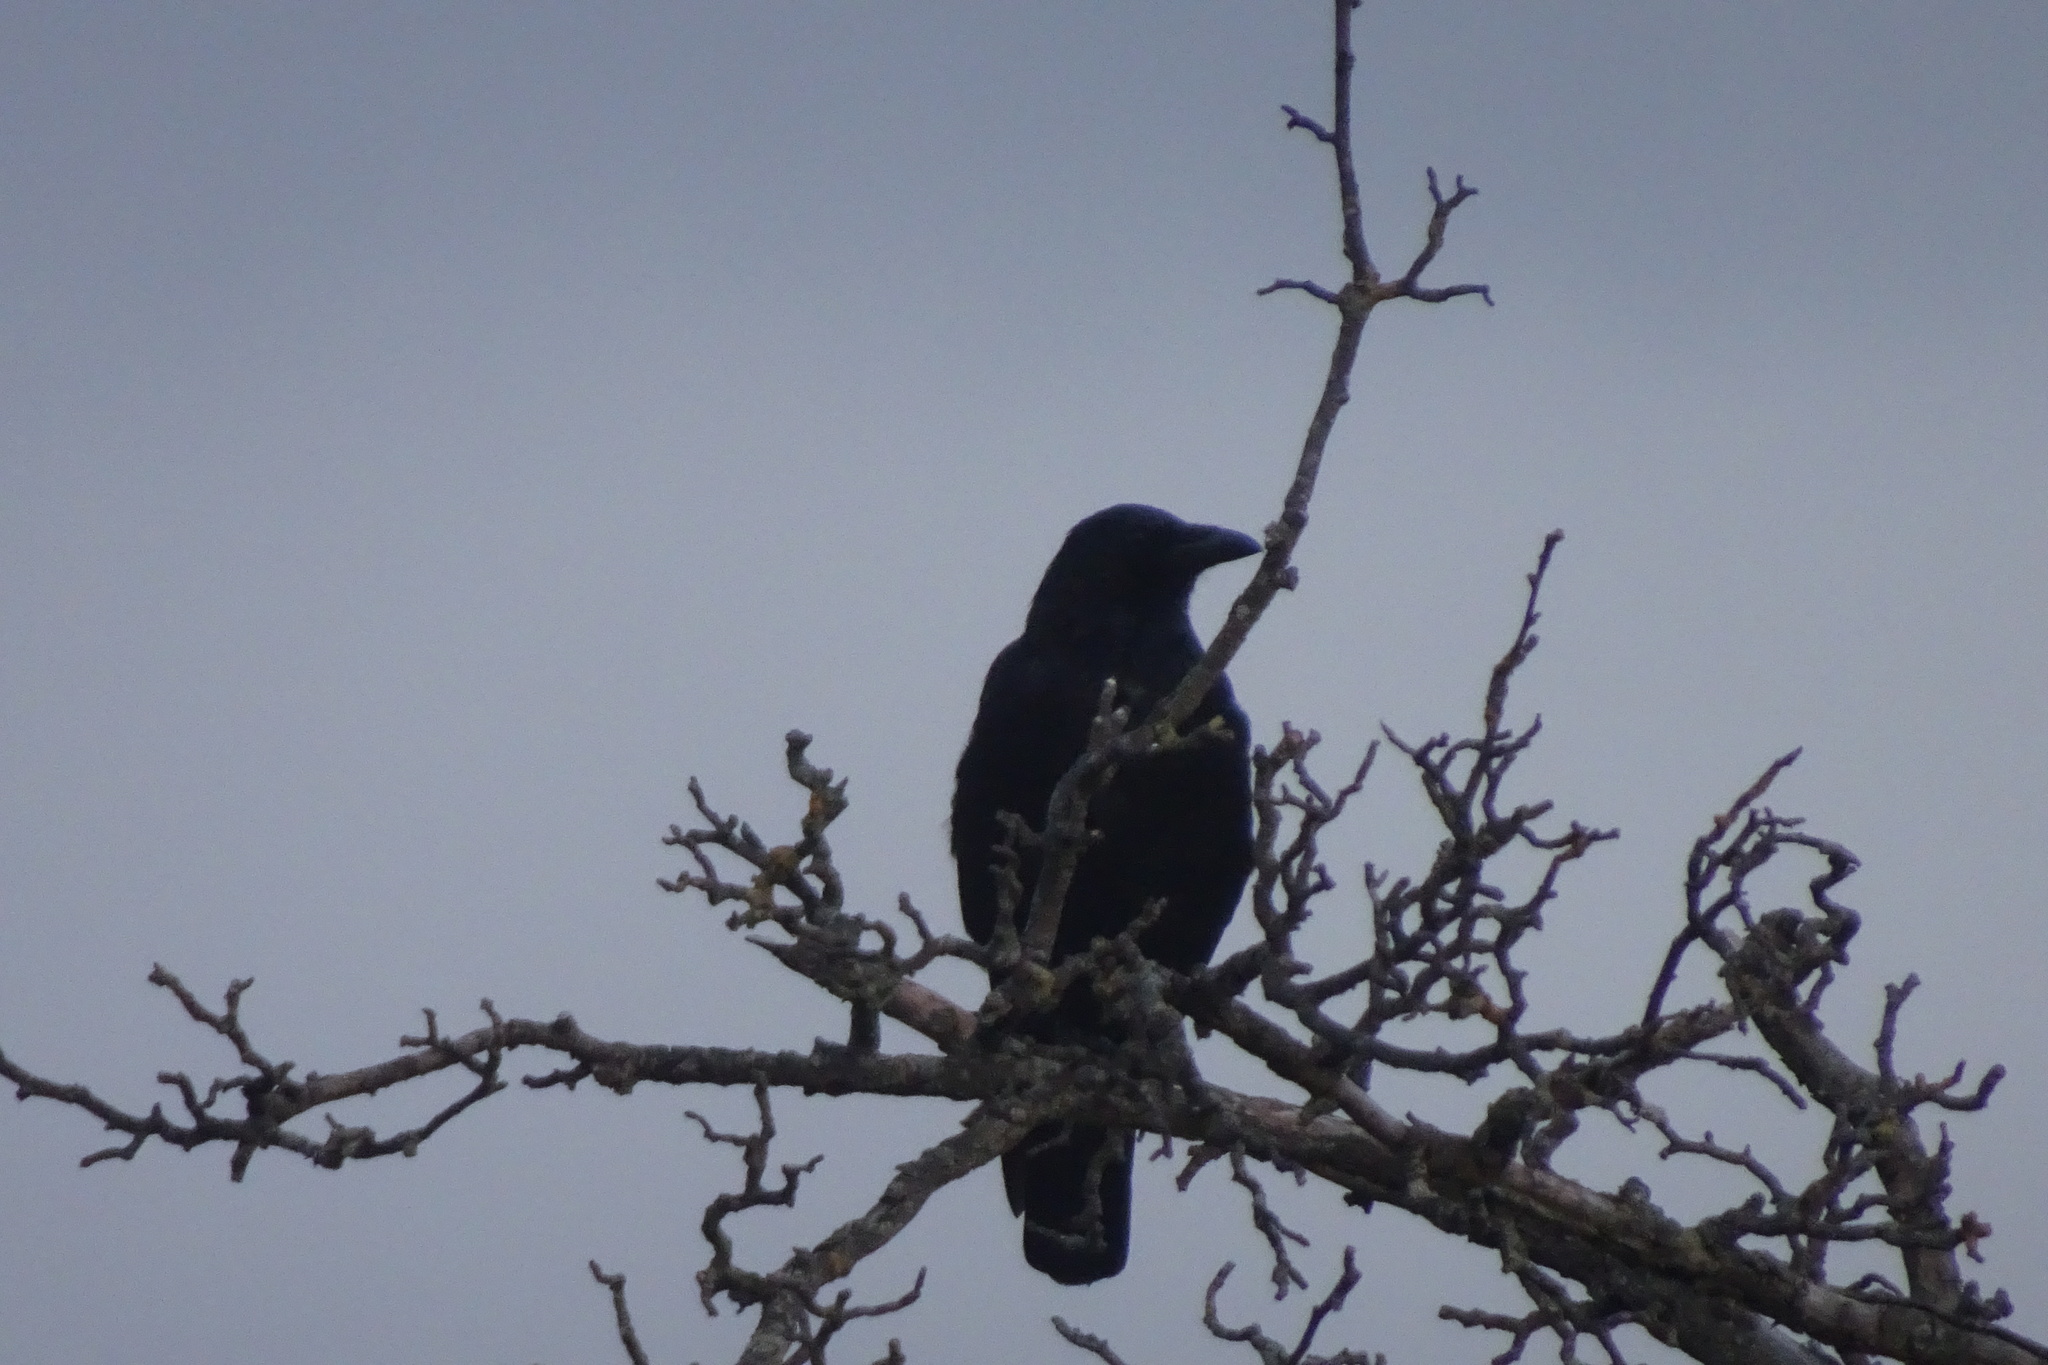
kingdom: Animalia
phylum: Chordata
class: Aves
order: Passeriformes
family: Corvidae
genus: Corvus
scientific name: Corvus corone
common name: Carrion crow
